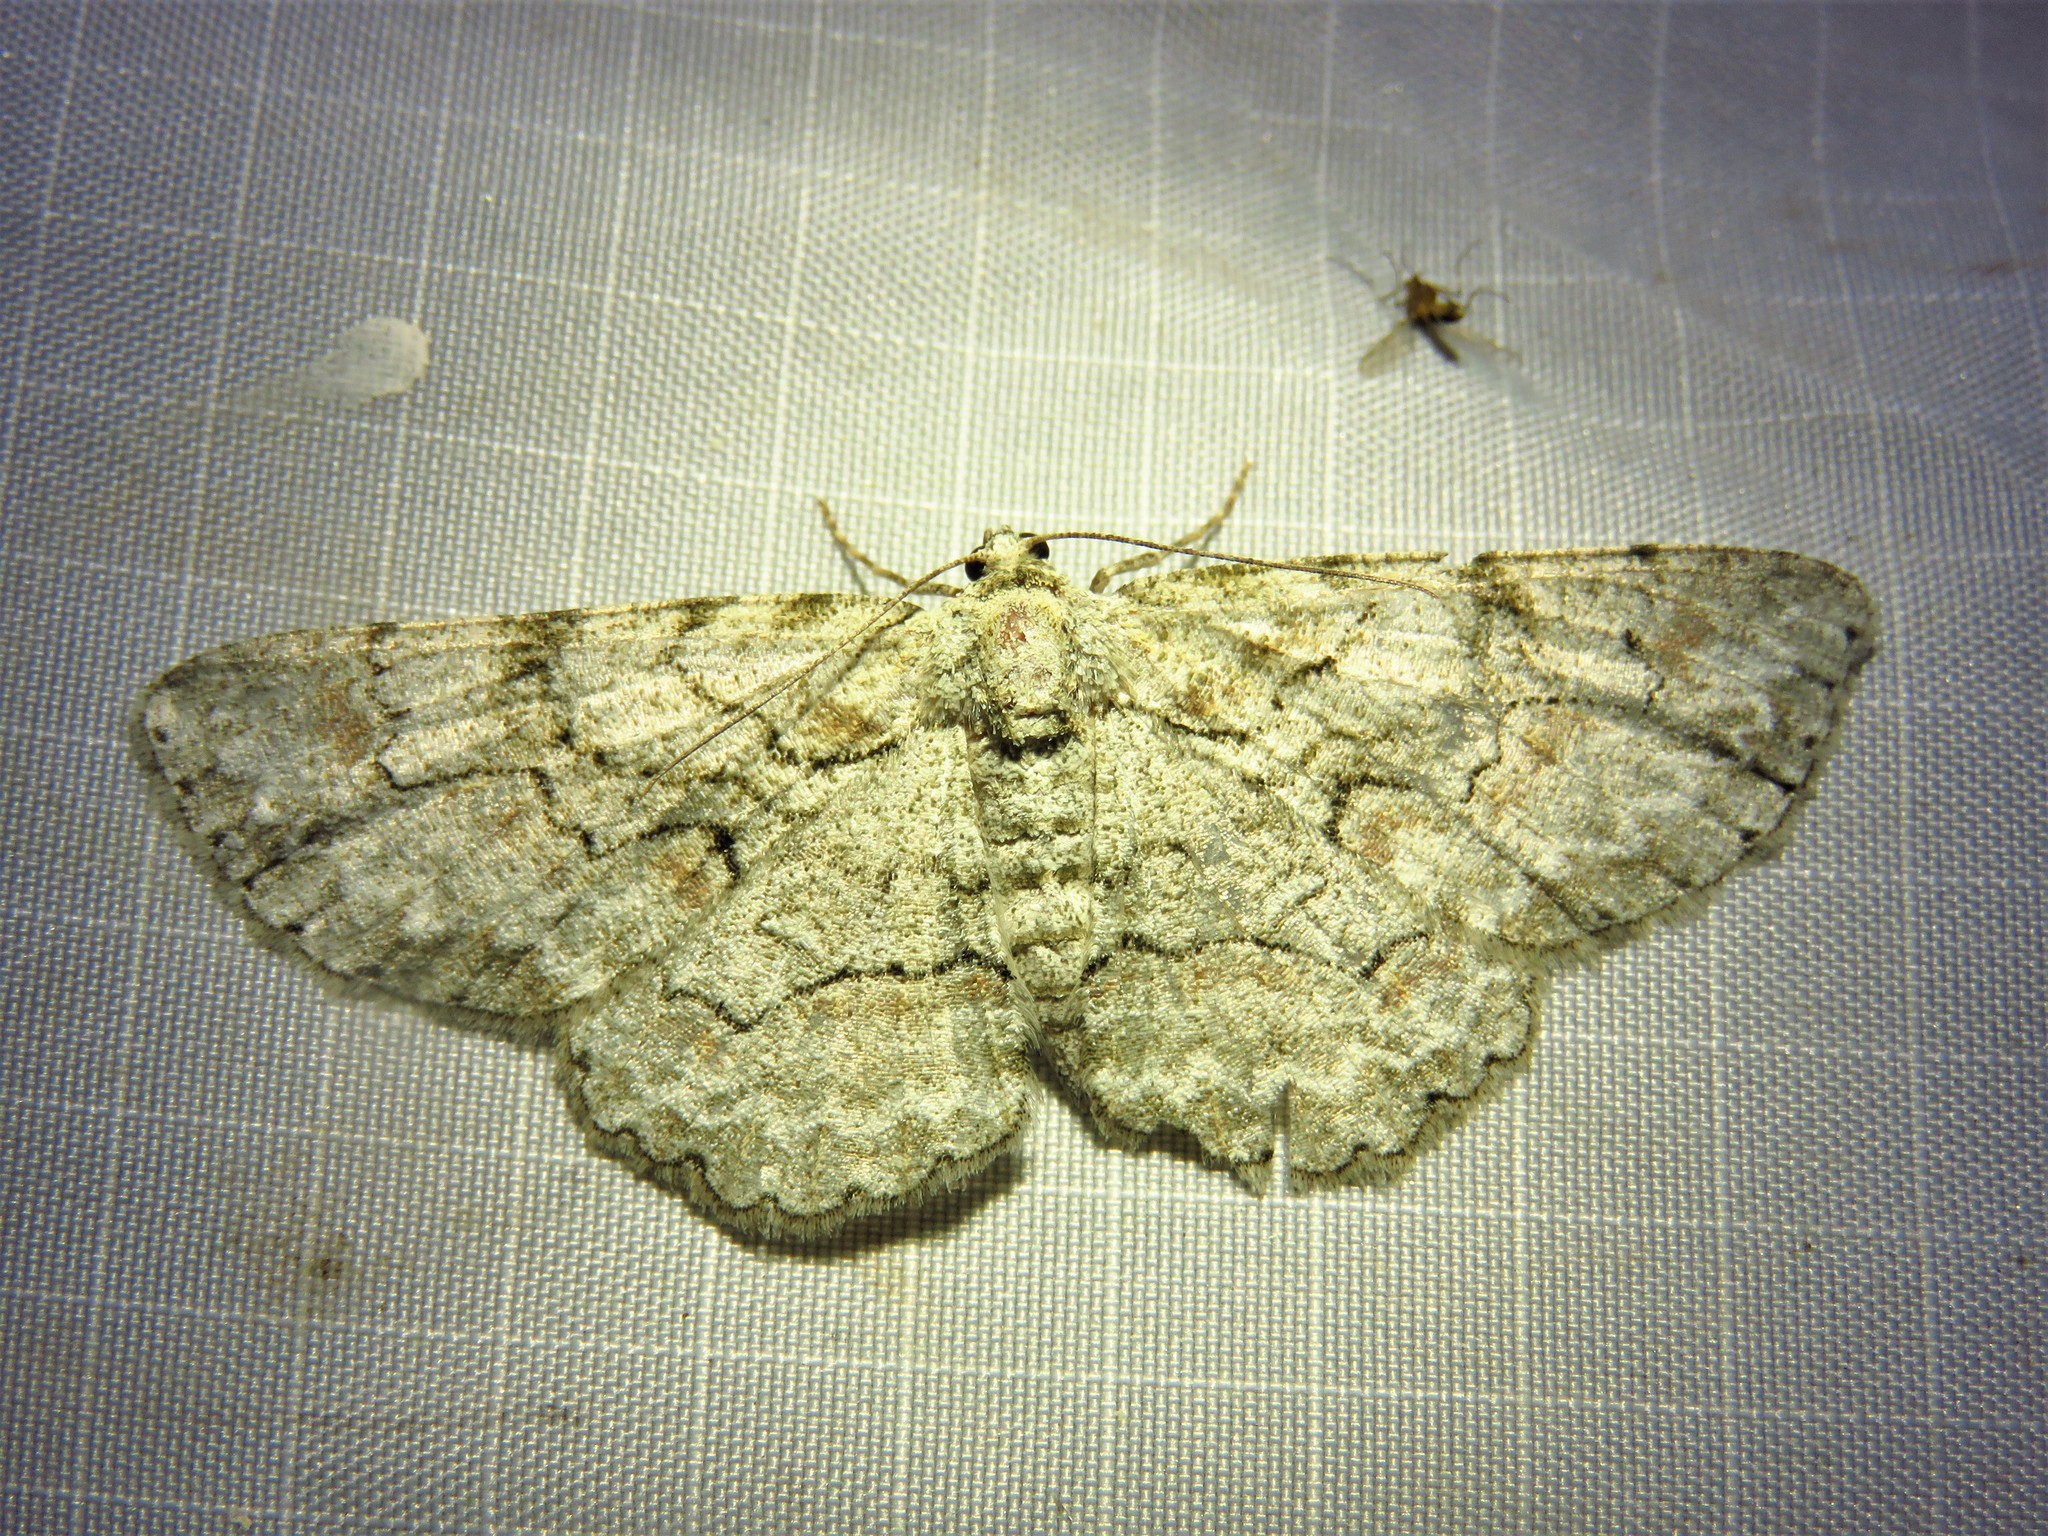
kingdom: Animalia
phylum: Arthropoda
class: Insecta
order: Lepidoptera
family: Geometridae
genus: Iridopsis
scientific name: Iridopsis defectaria
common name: Brown-shaded gray
